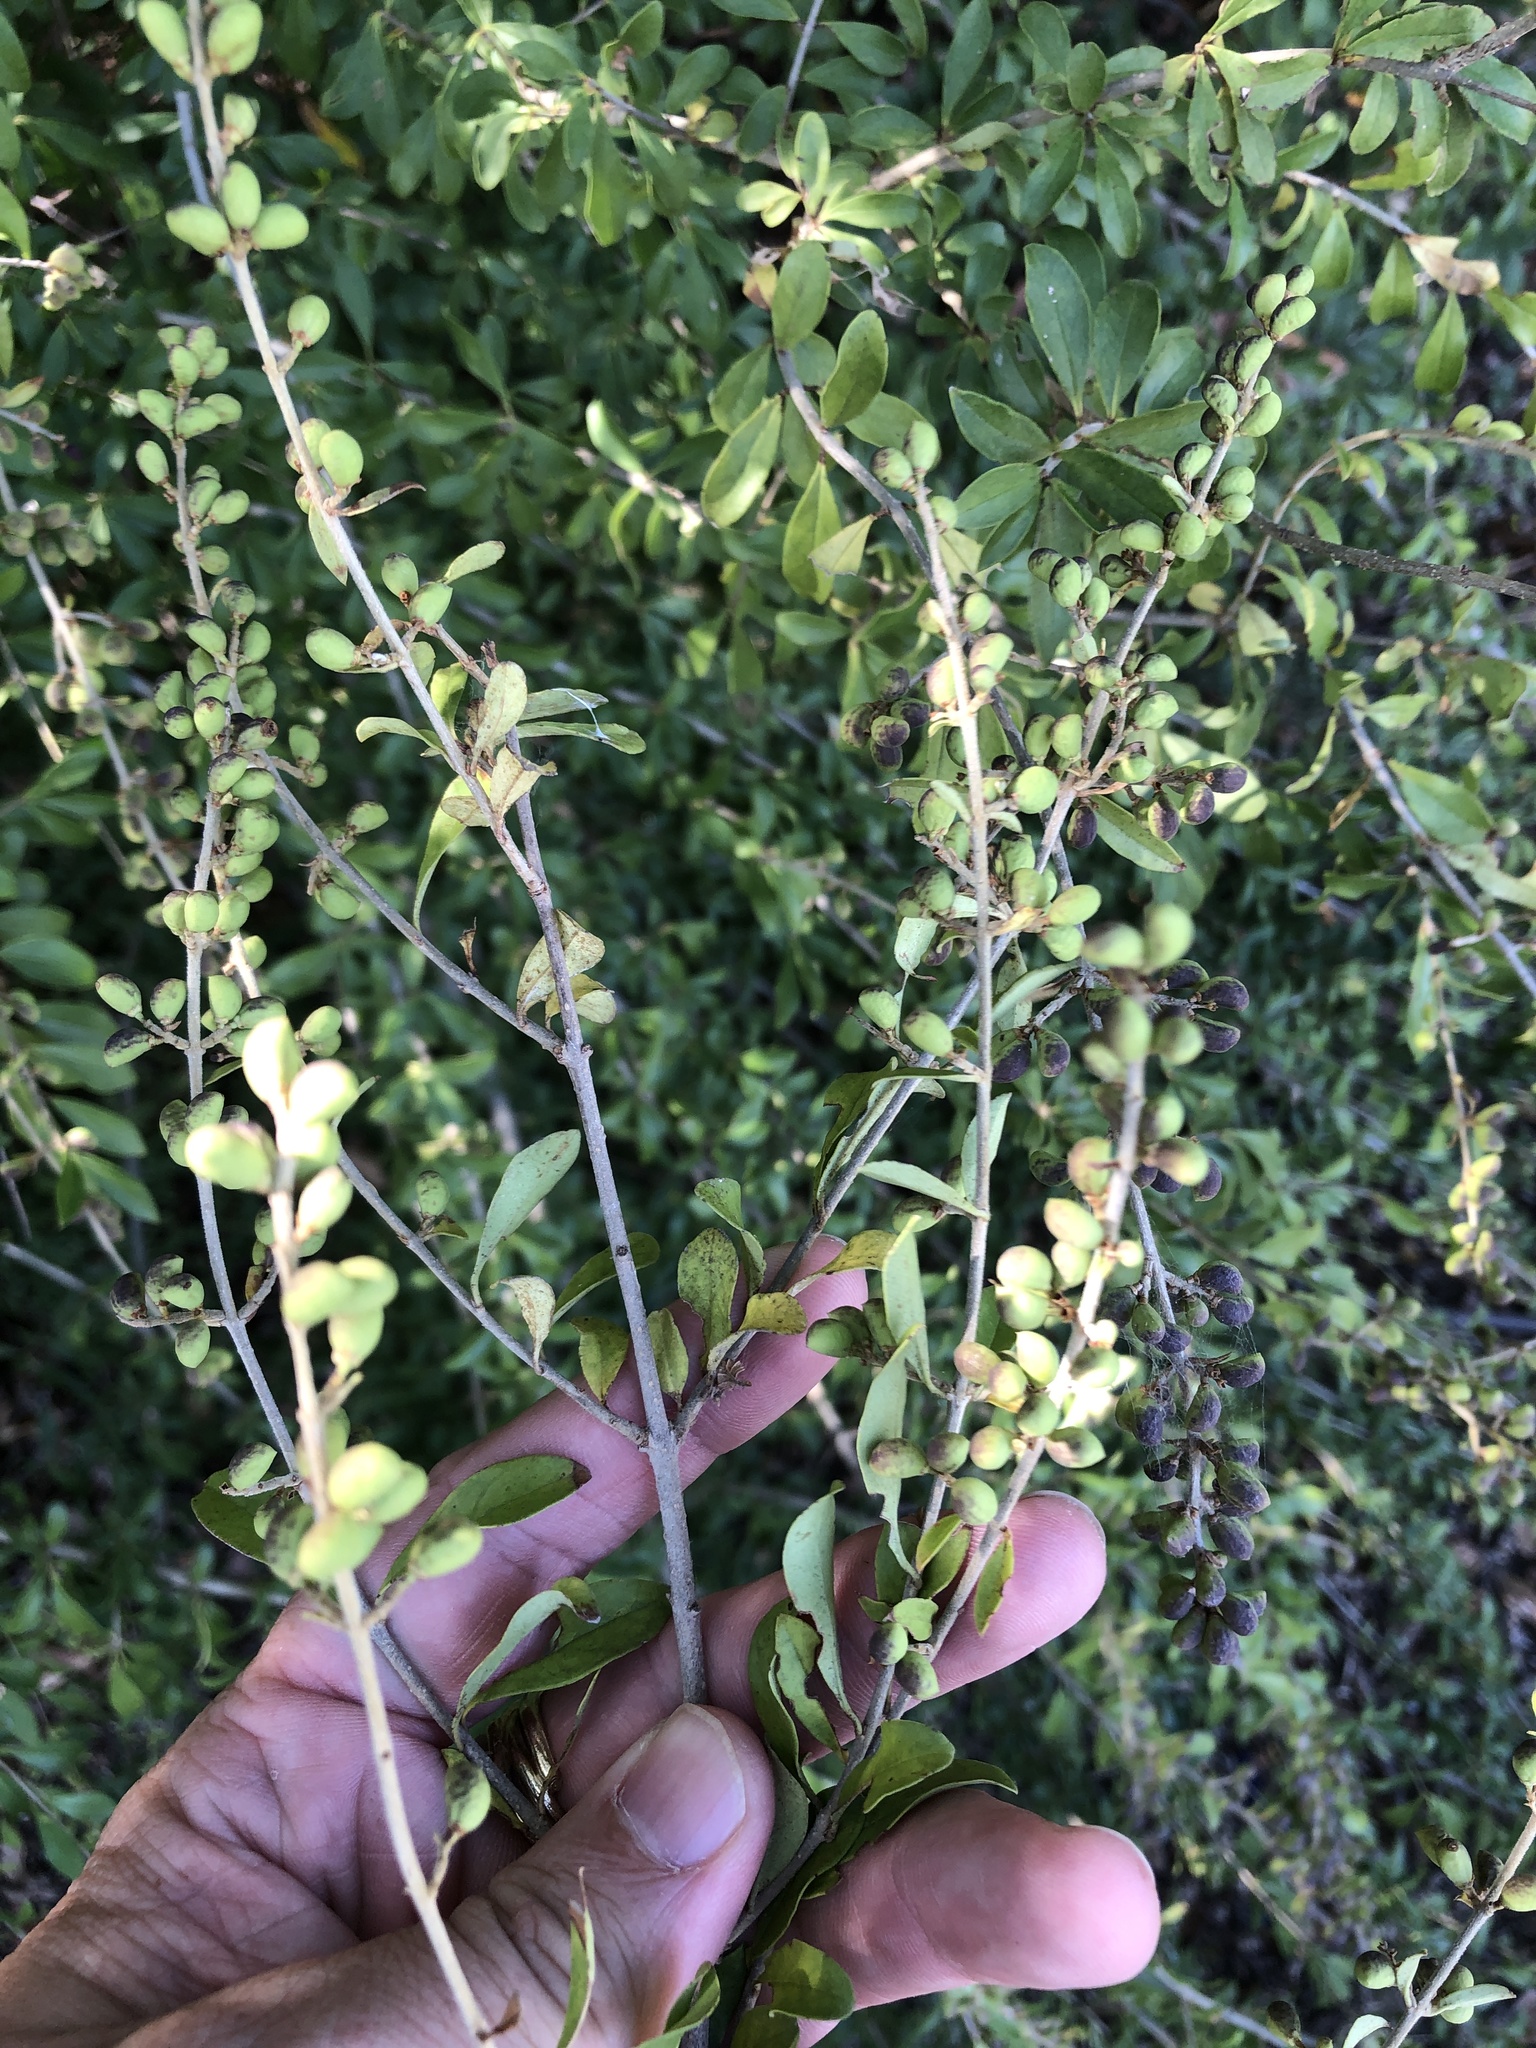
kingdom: Plantae
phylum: Tracheophyta
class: Magnoliopsida
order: Lamiales
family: Oleaceae
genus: Ligustrum
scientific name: Ligustrum quihoui
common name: Waxyleaf privet
